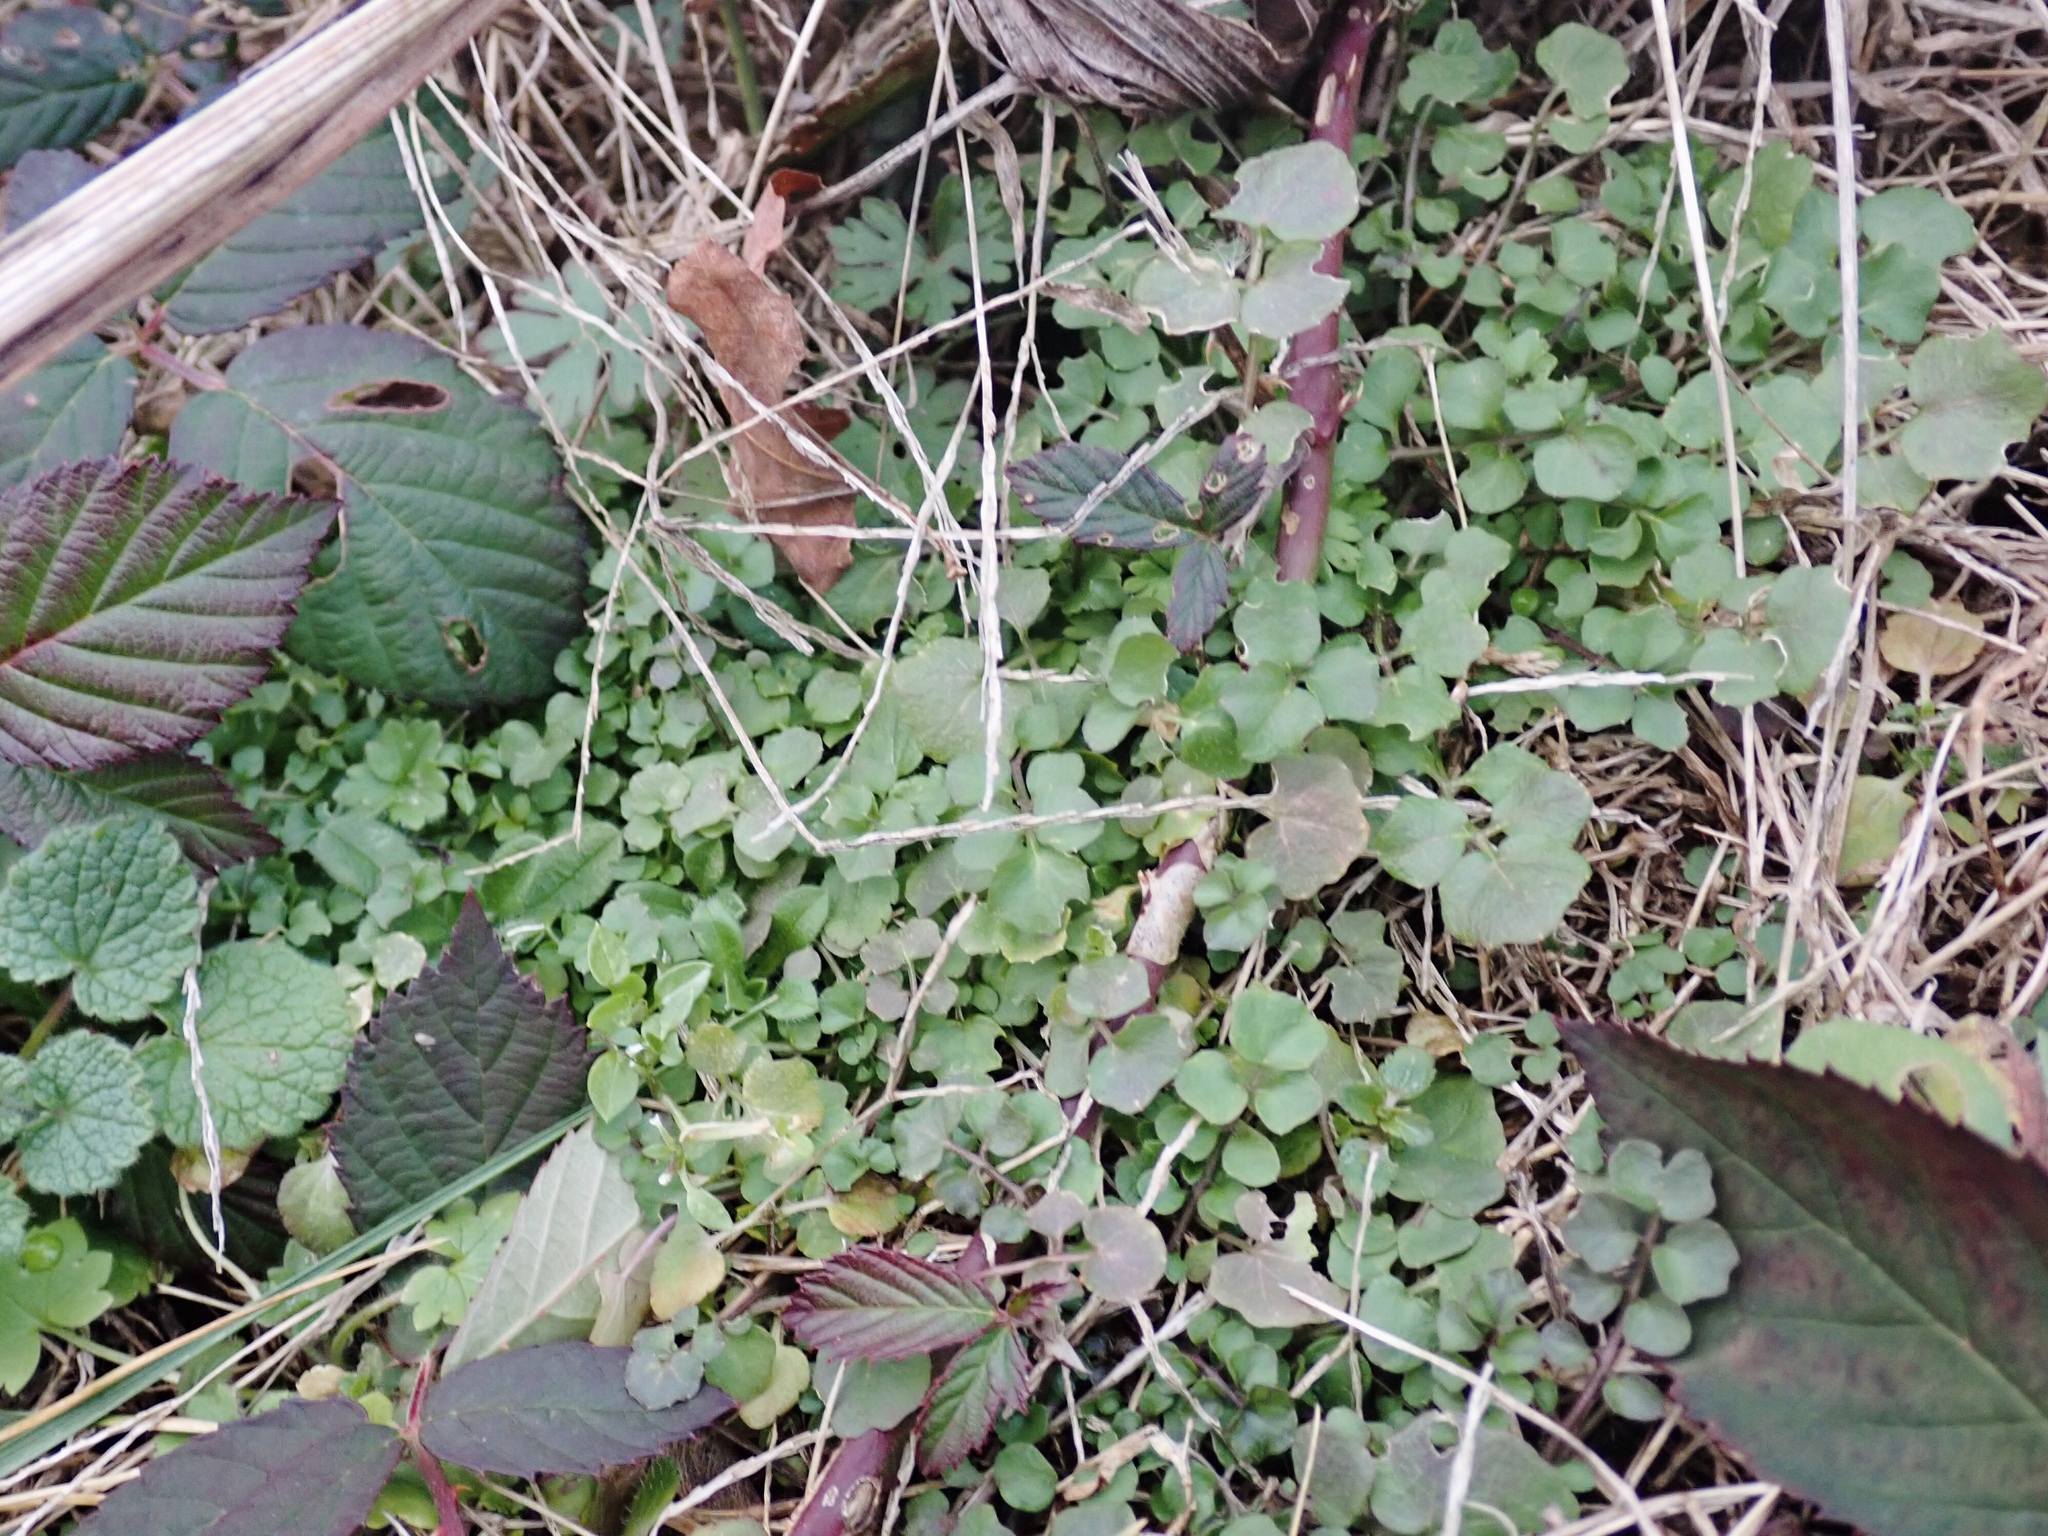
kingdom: Plantae
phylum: Tracheophyta
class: Magnoliopsida
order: Brassicales
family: Brassicaceae
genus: Cardamine
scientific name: Cardamine hirsuta
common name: Hairy bittercress
